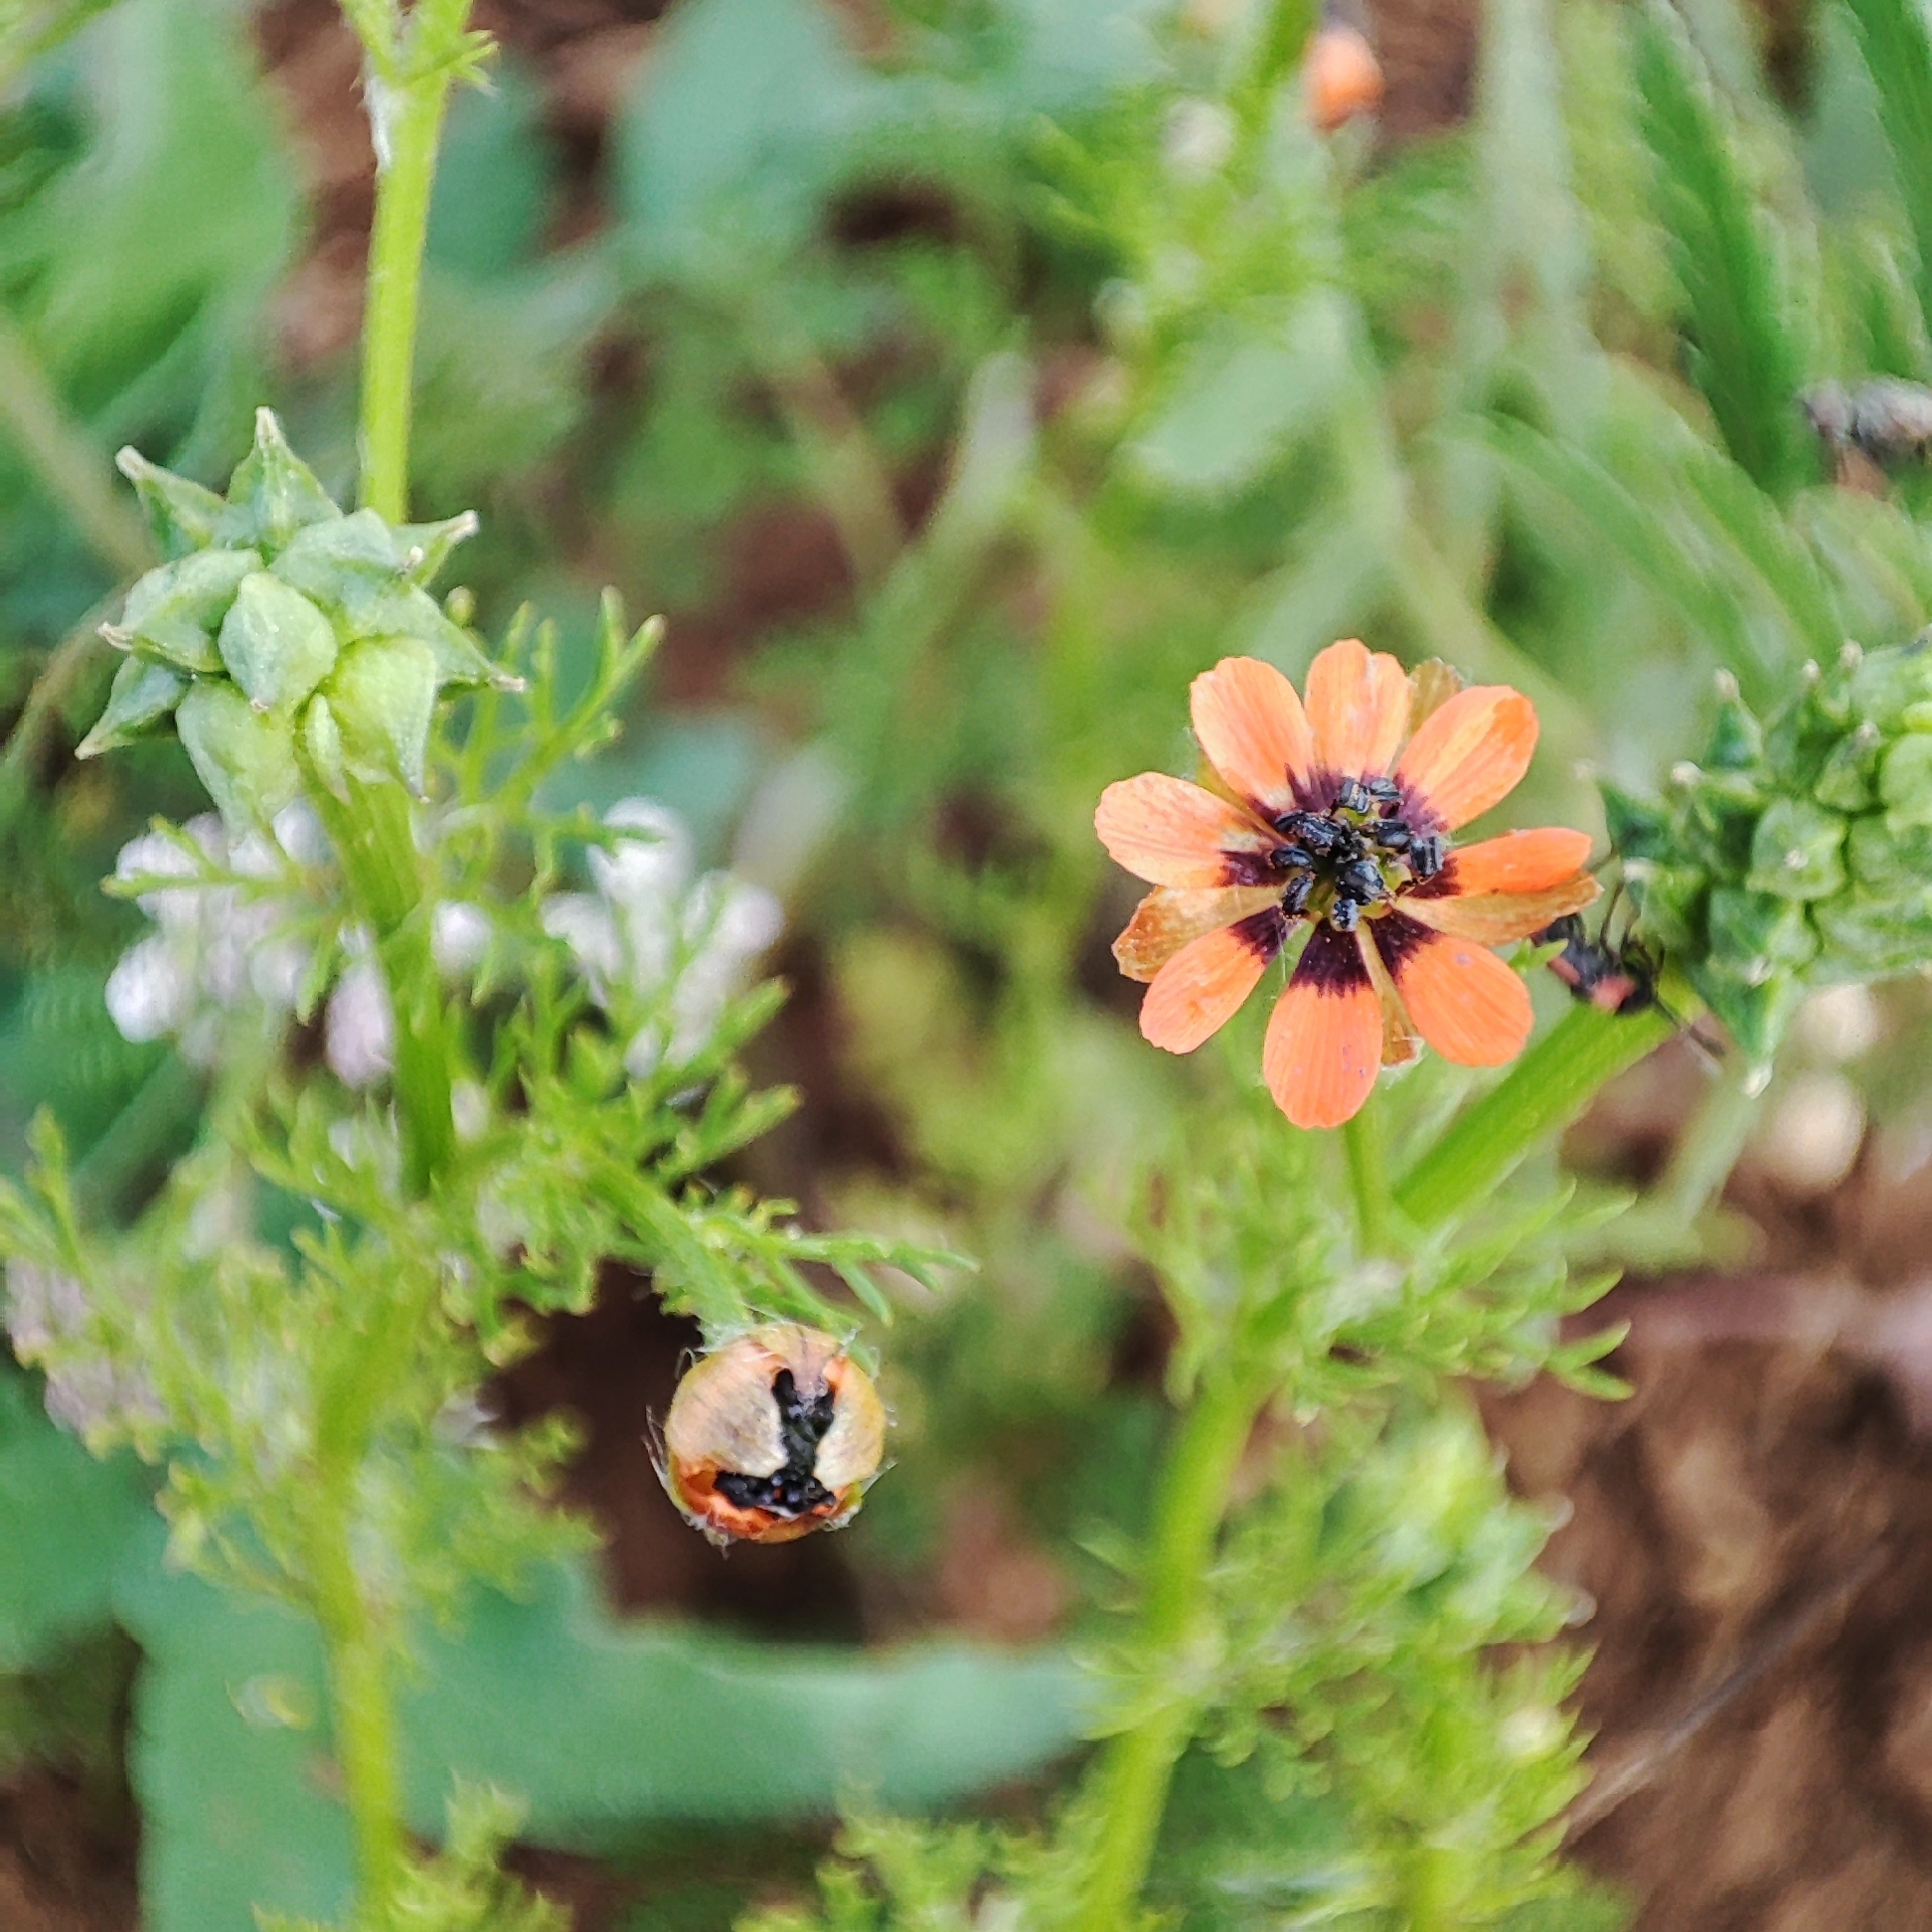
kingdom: Plantae
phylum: Tracheophyta
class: Magnoliopsida
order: Ranunculales
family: Ranunculaceae
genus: Adonis
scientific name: Adonis aestivalis
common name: Summer pheasant's-eye
